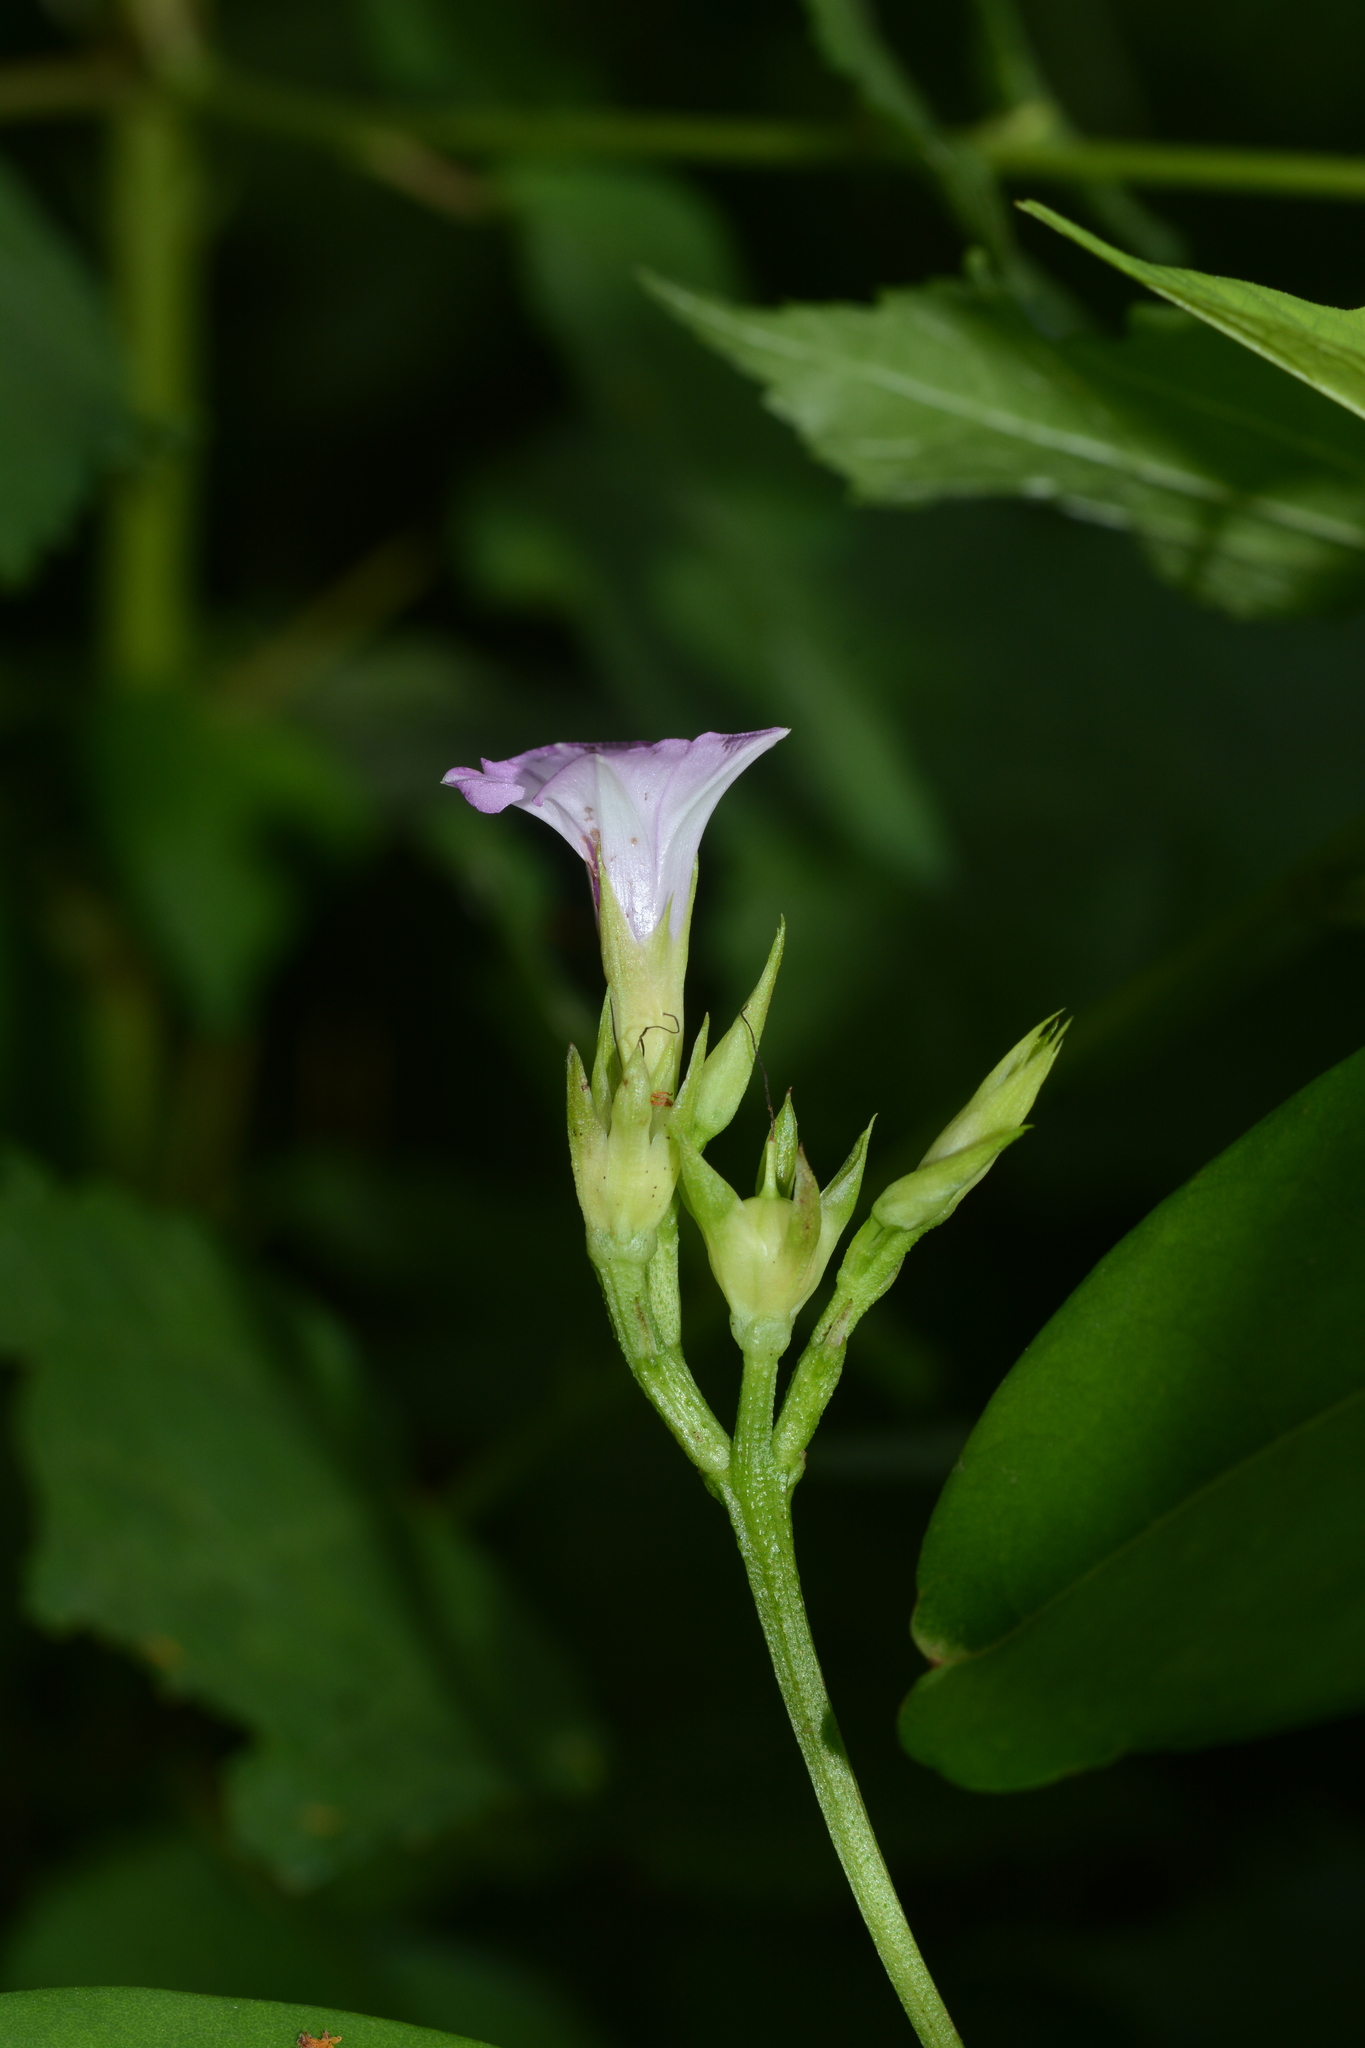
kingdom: Plantae
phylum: Tracheophyta
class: Magnoliopsida
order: Solanales
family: Convolvulaceae
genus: Ipomoea
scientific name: Ipomoea triloba
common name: Little-bell
